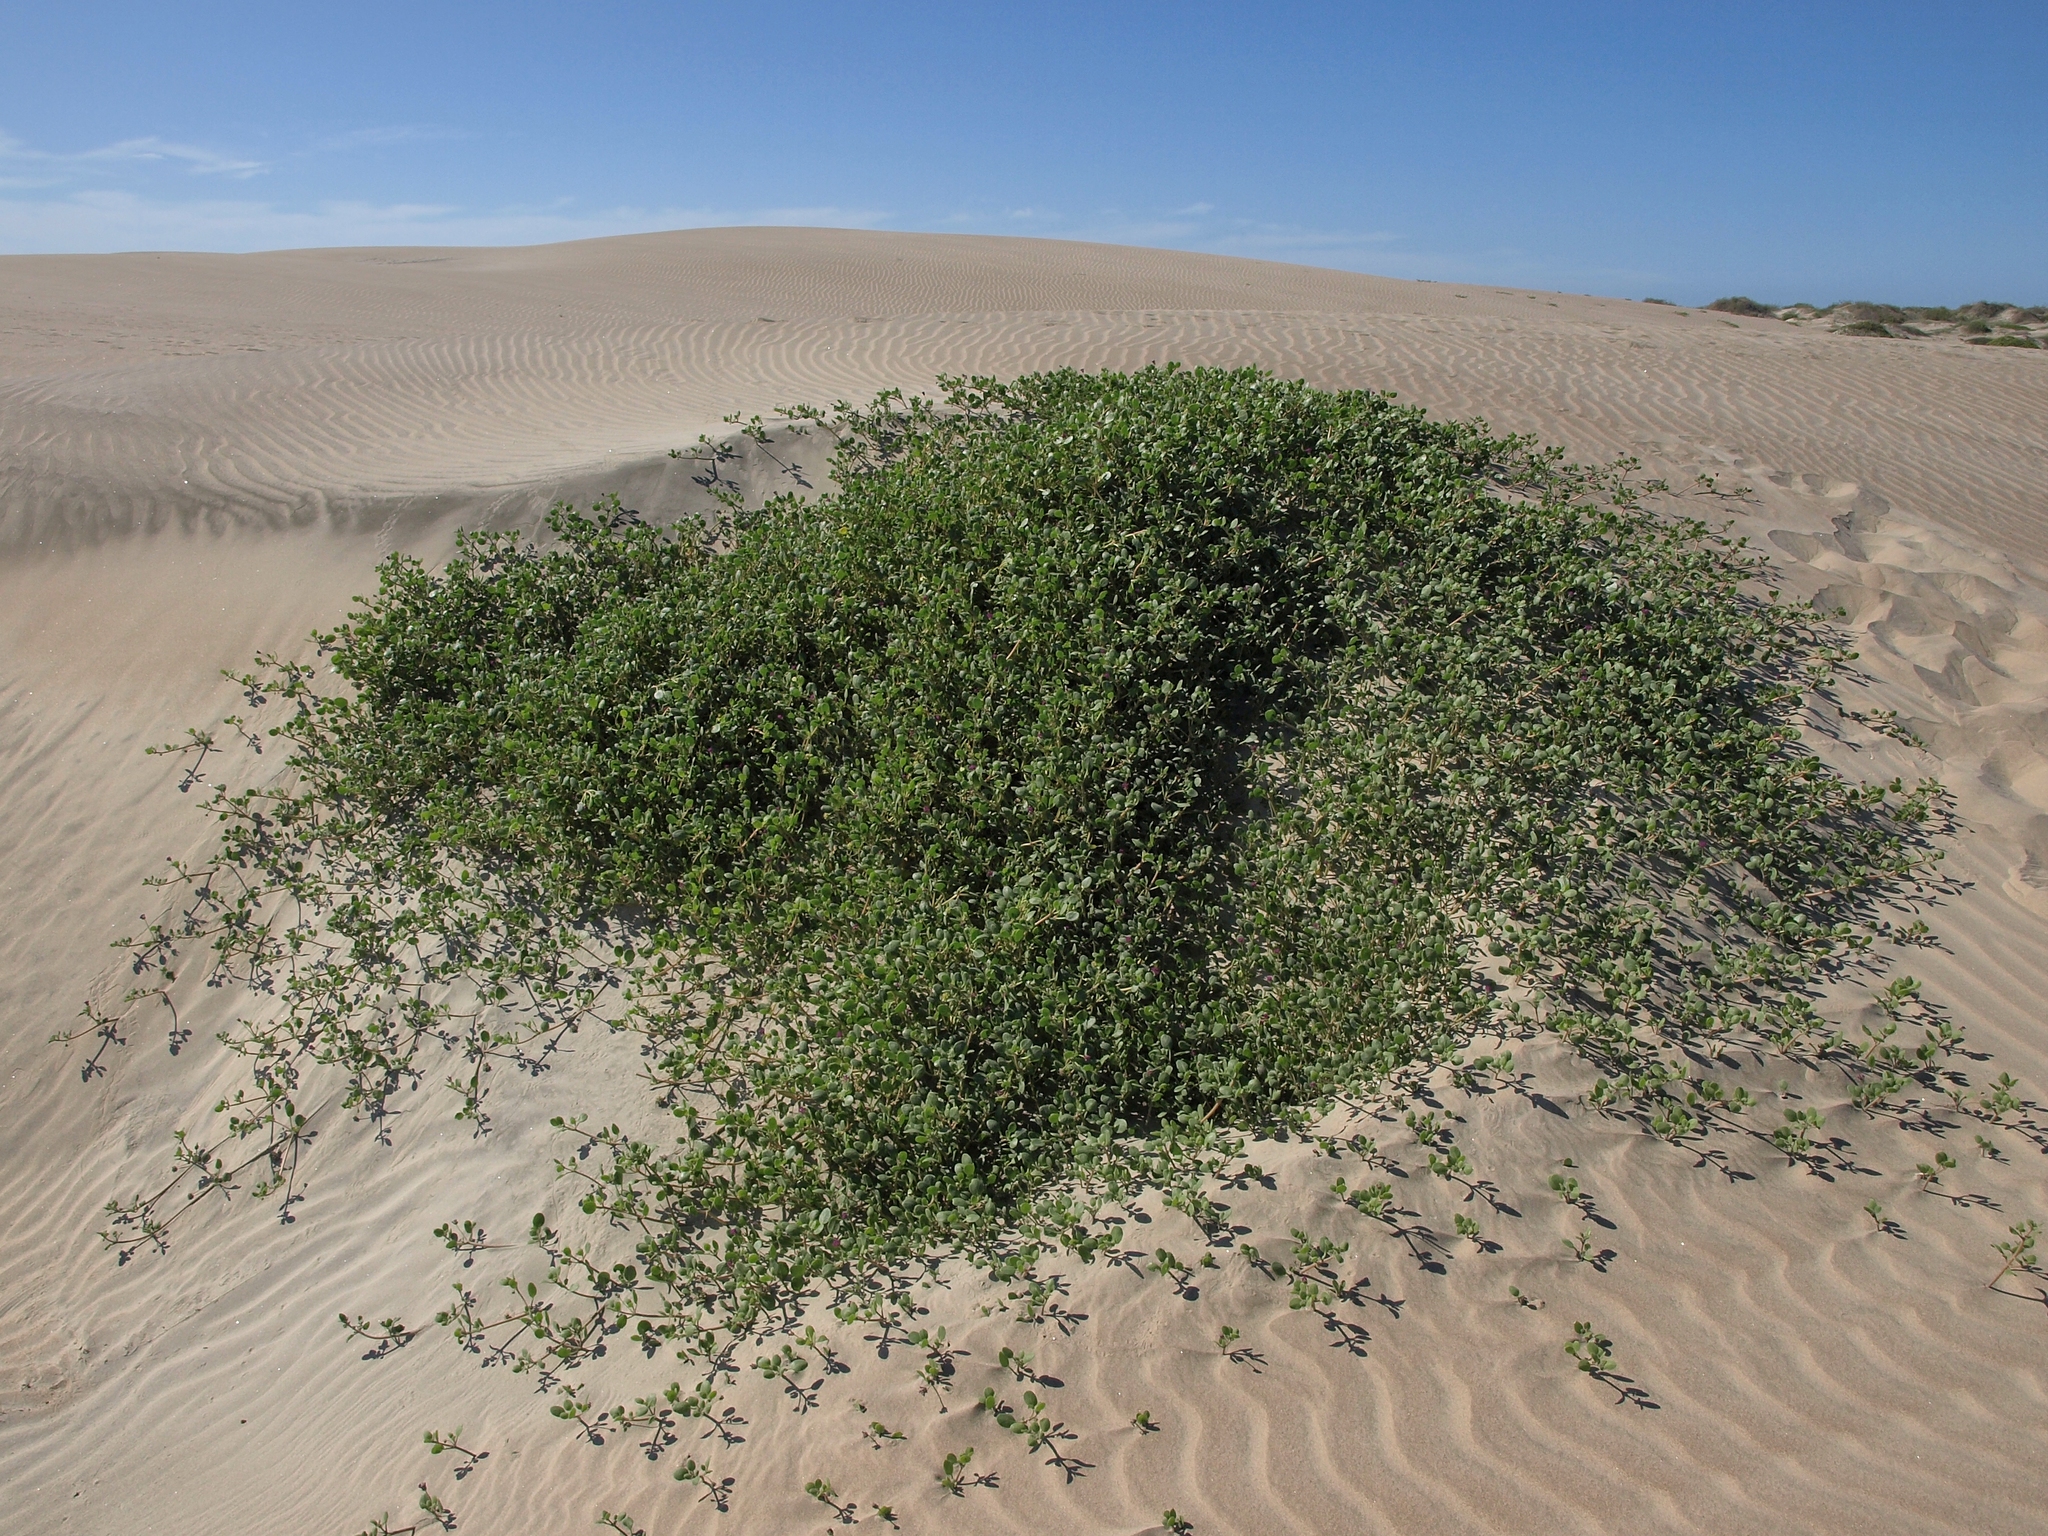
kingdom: Plantae
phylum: Tracheophyta
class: Magnoliopsida
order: Caryophyllales
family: Nyctaginaceae
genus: Abronia
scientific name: Abronia maritima
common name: Red sand-verbena
